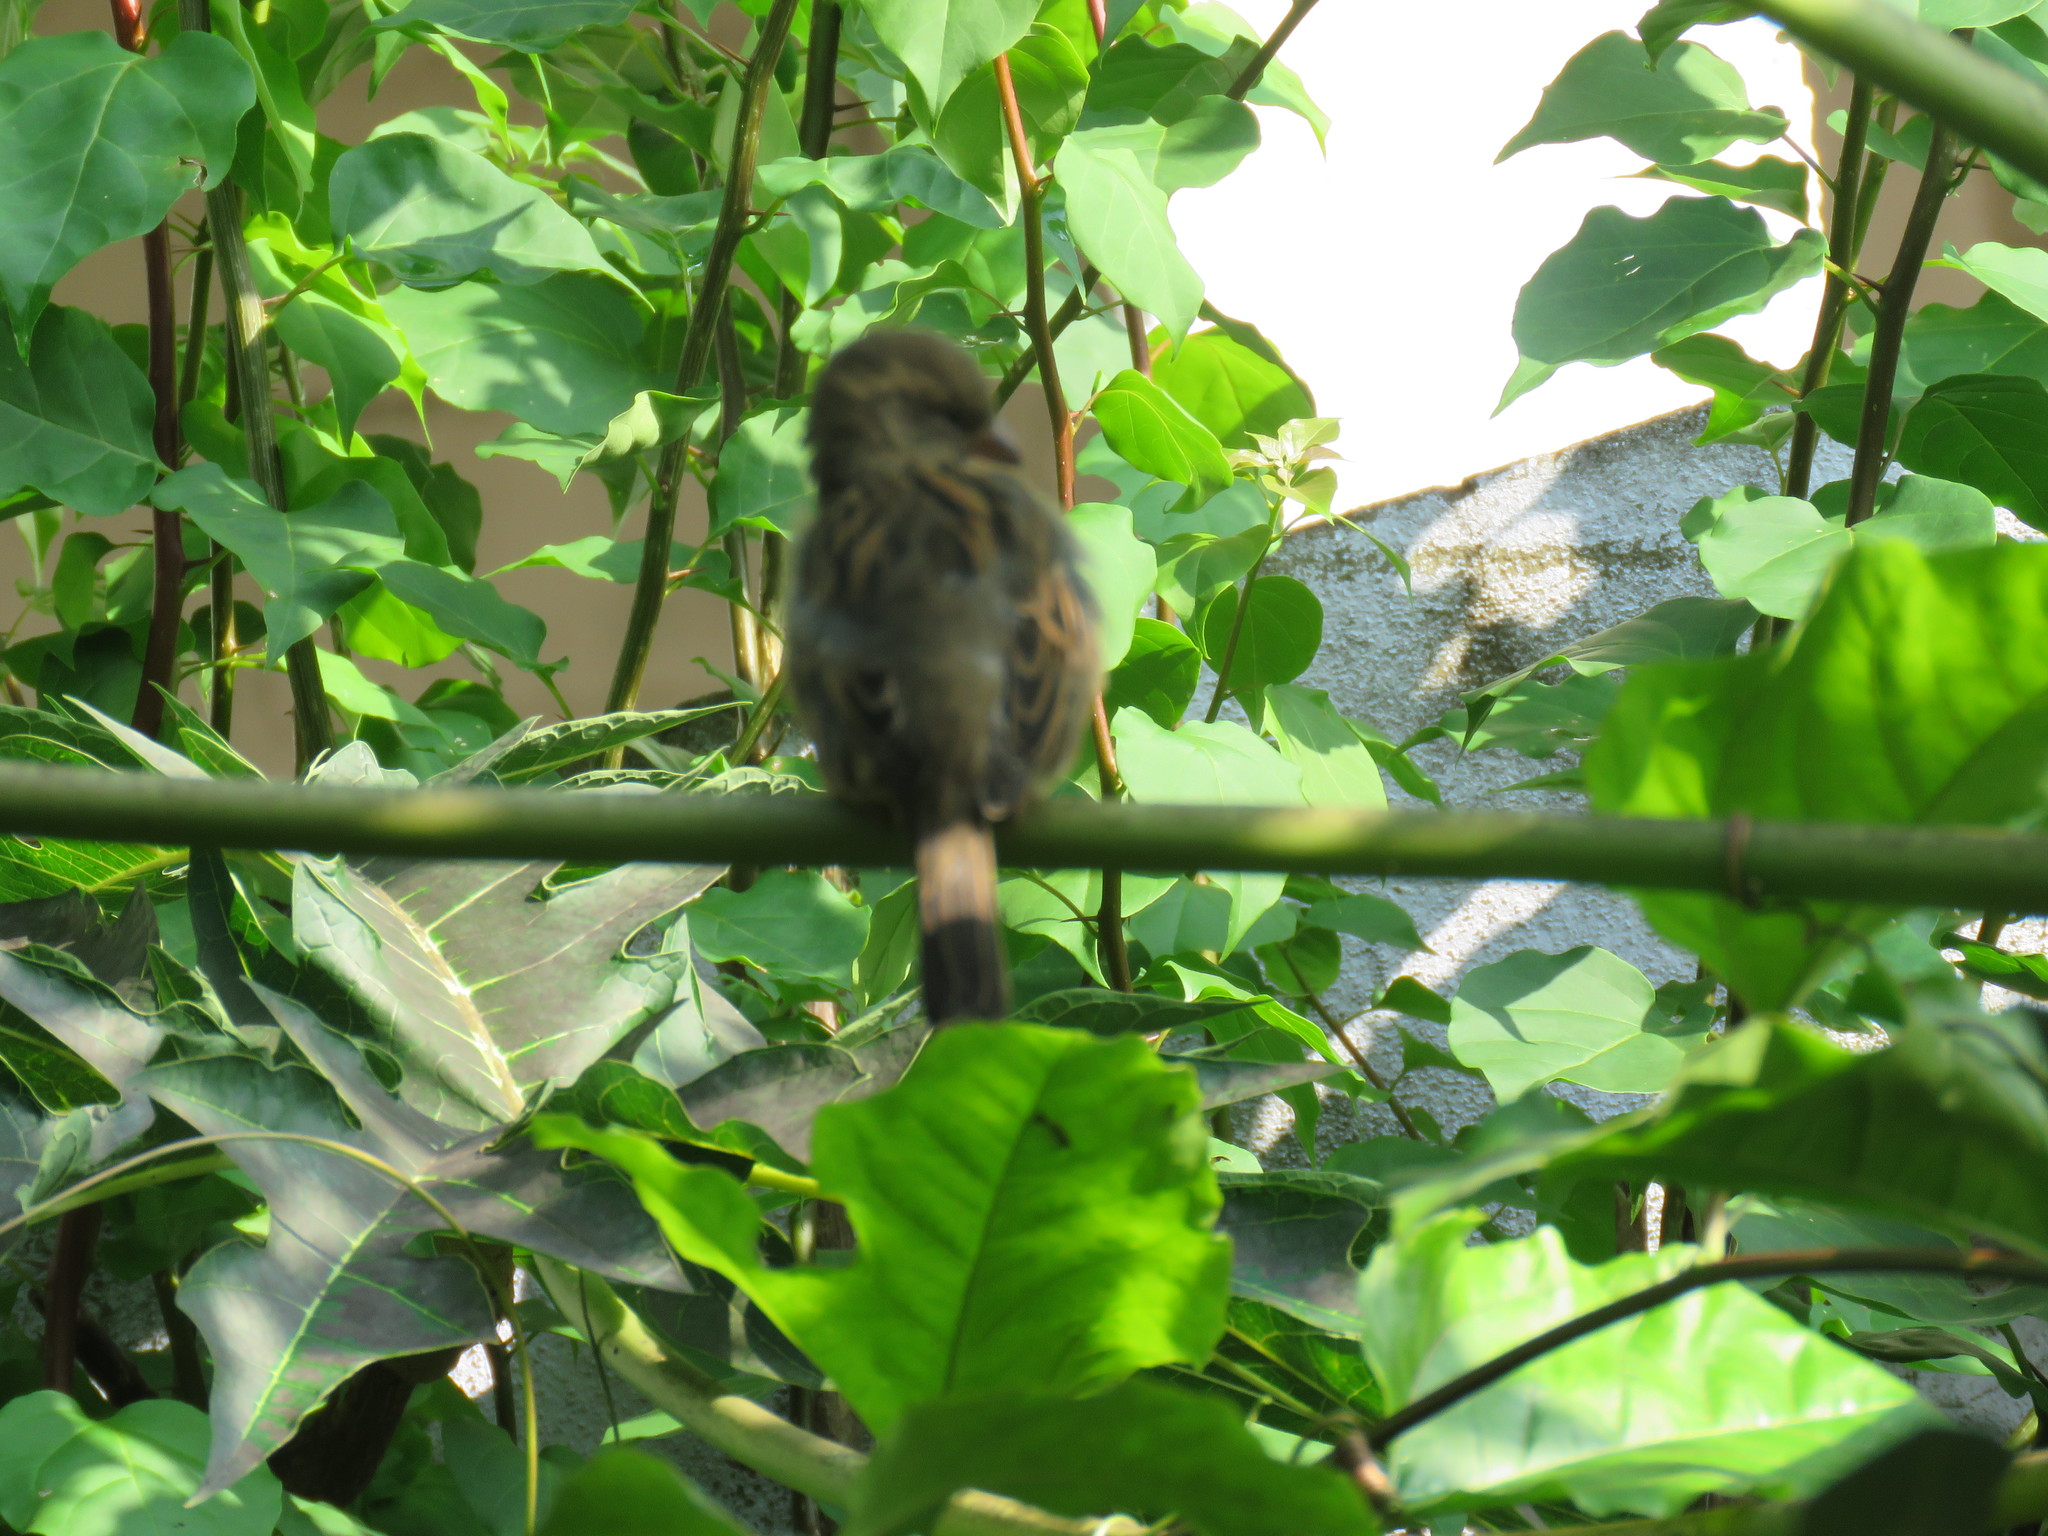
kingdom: Animalia
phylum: Chordata
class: Aves
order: Passeriformes
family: Passeridae
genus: Passer
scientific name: Passer domesticus
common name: House sparrow
